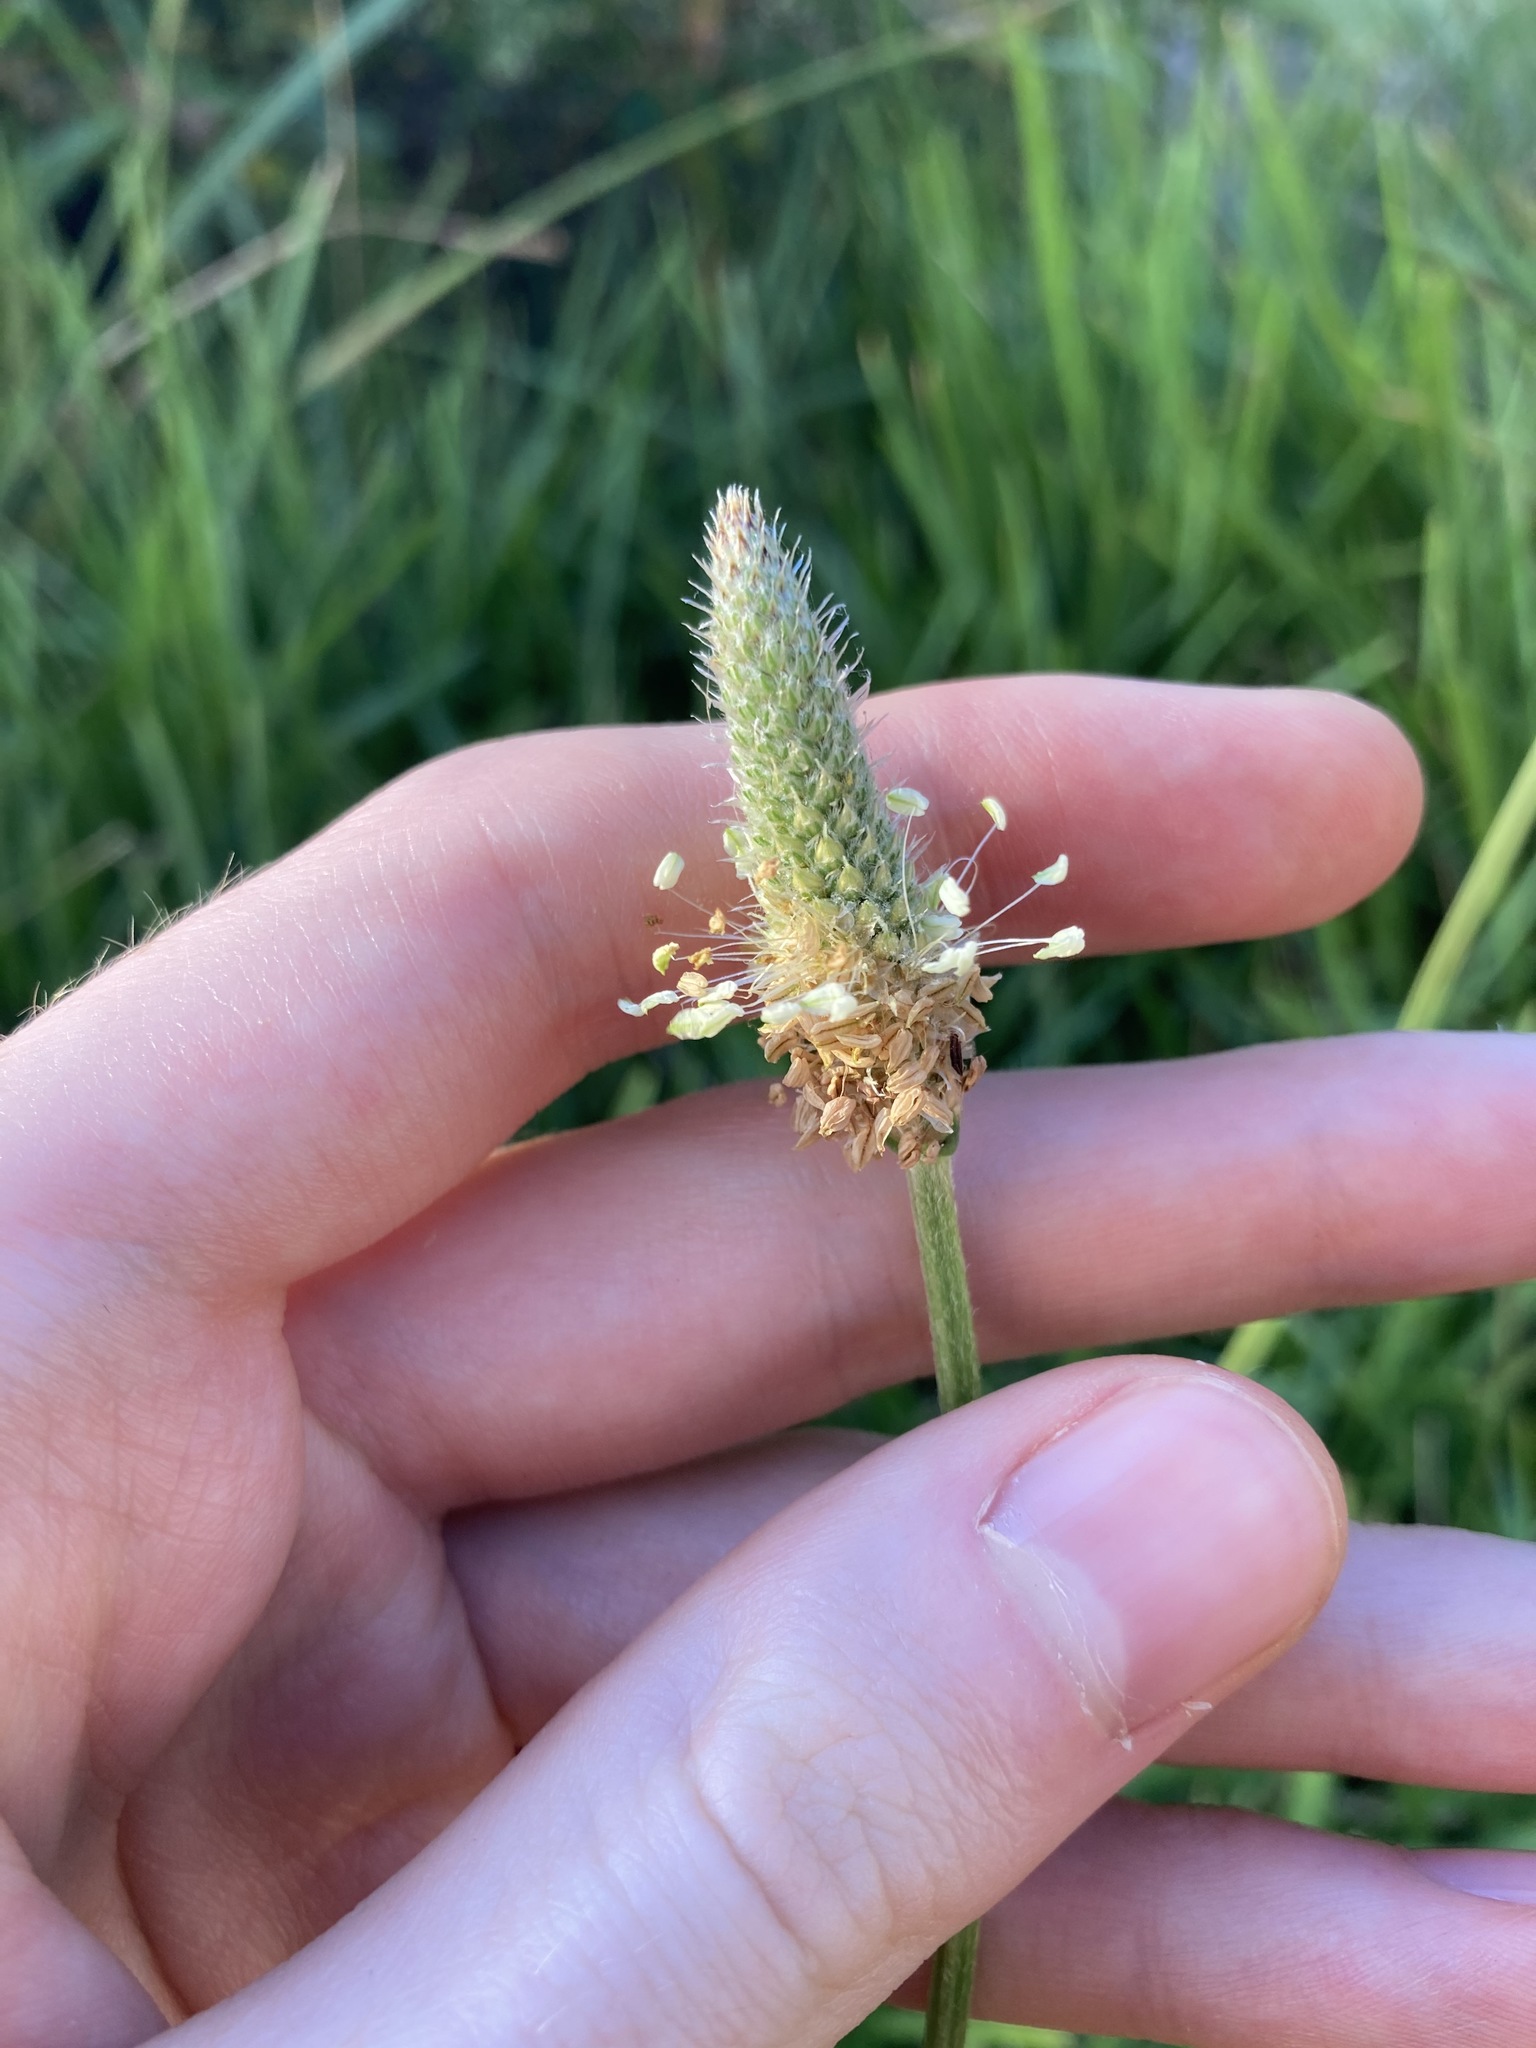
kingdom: Plantae
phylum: Tracheophyta
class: Magnoliopsida
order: Lamiales
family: Plantaginaceae
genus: Plantago
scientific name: Plantago lanceolata
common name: Ribwort plantain
